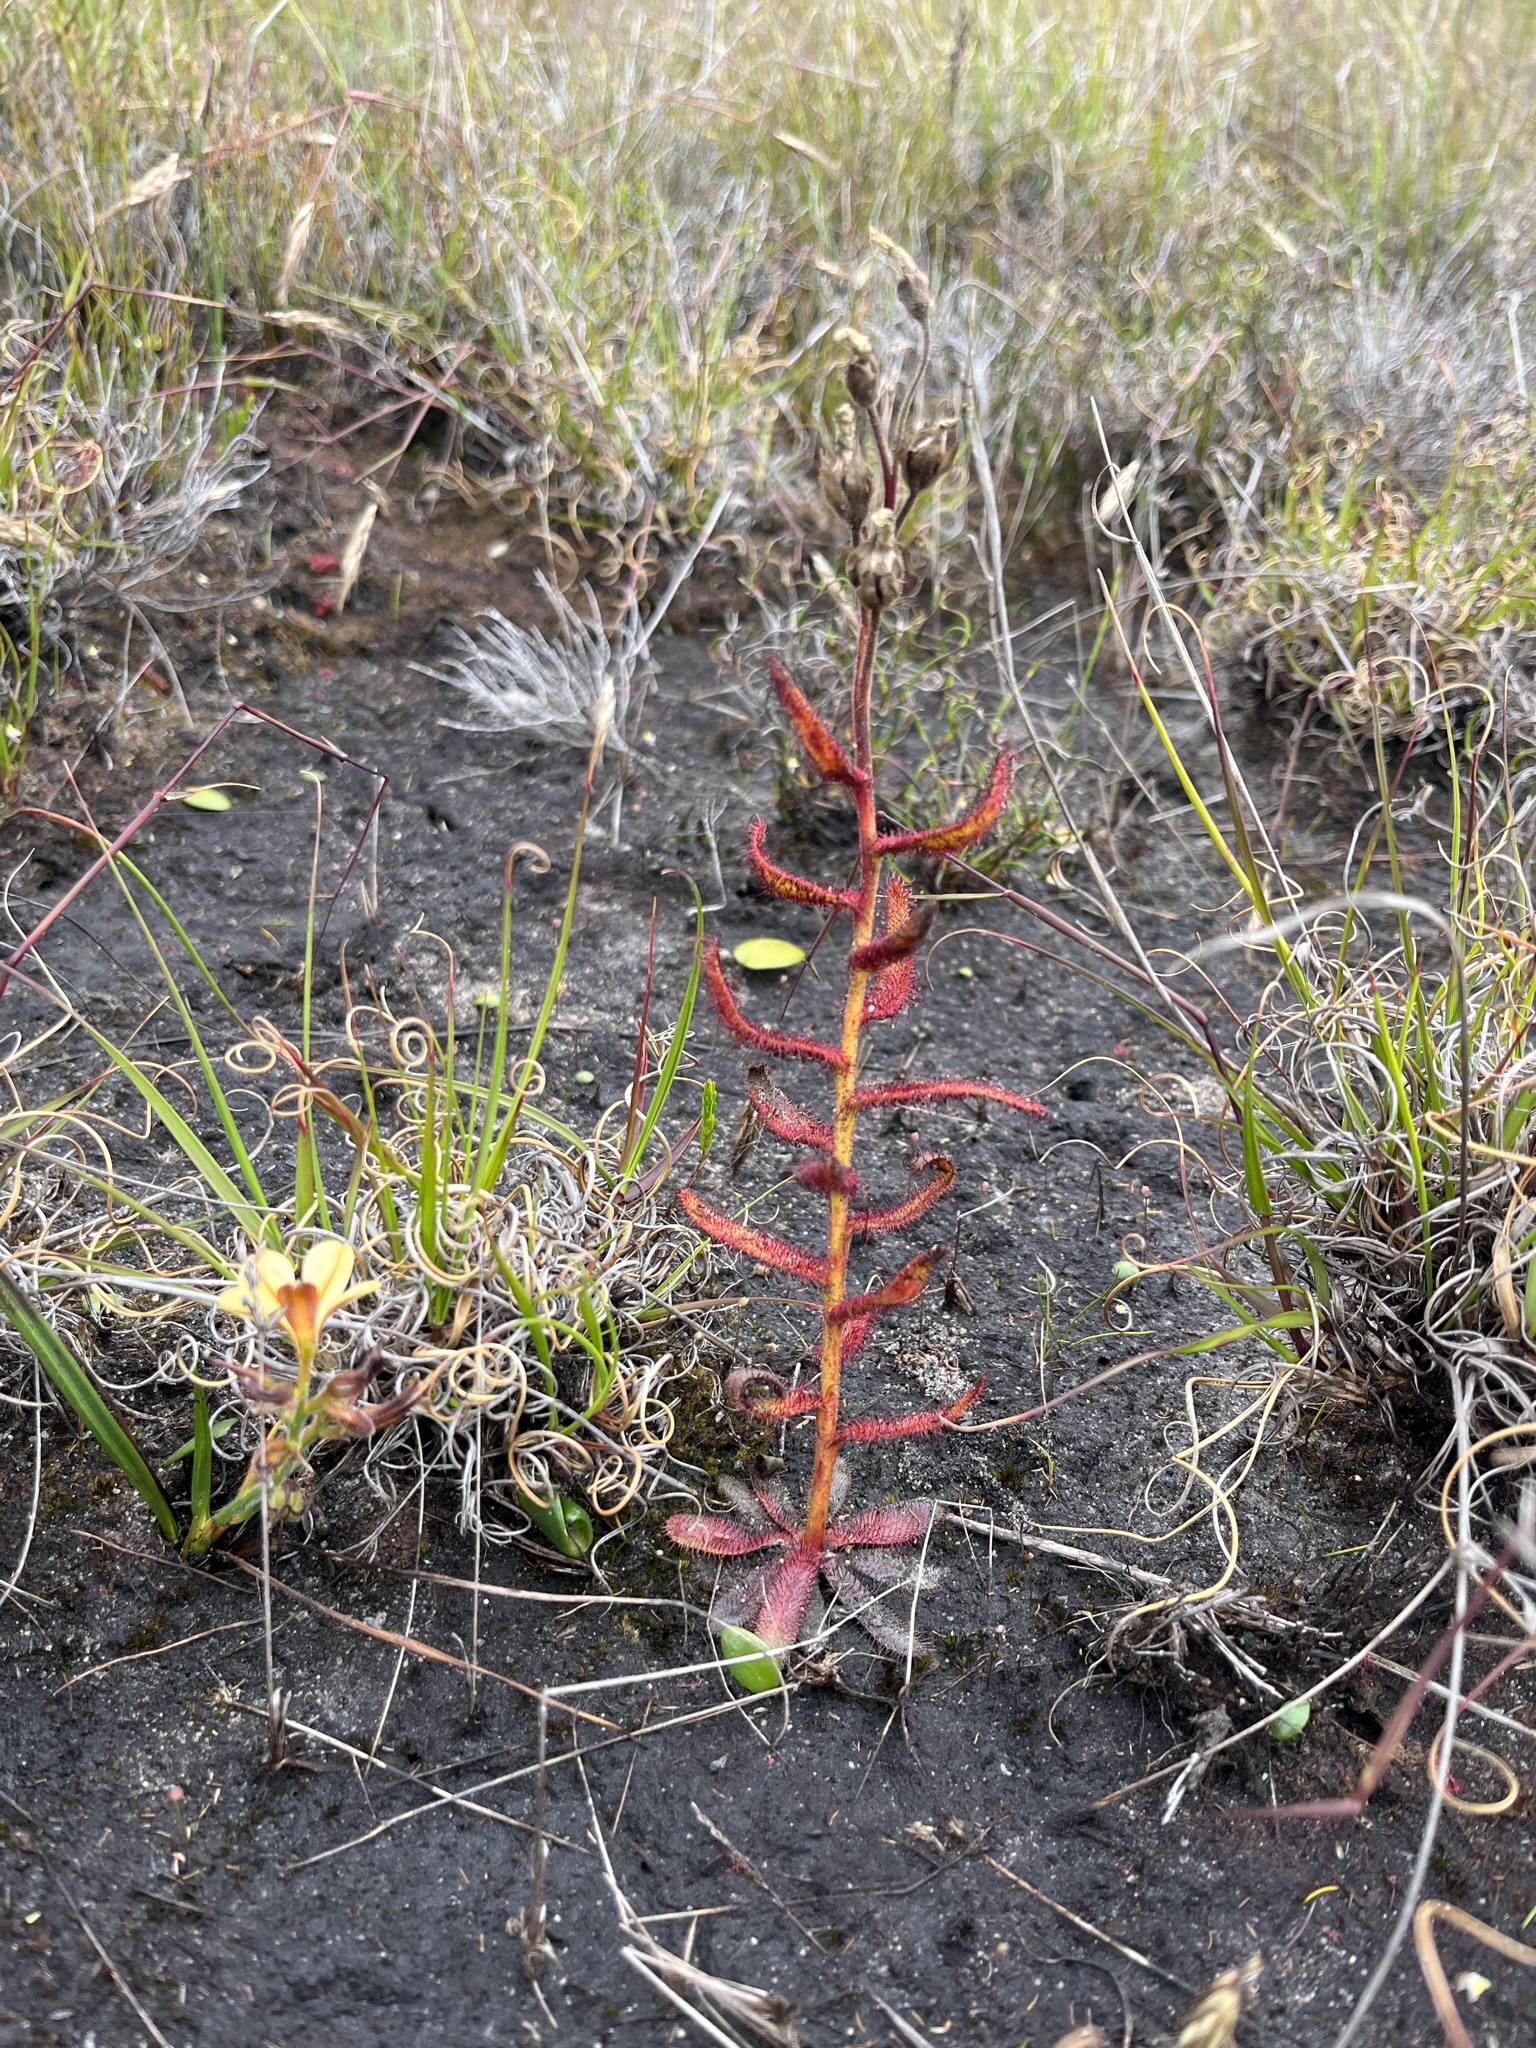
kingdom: Plantae
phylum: Tracheophyta
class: Magnoliopsida
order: Caryophyllales
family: Droseraceae
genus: Drosera
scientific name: Drosera cistiflora
